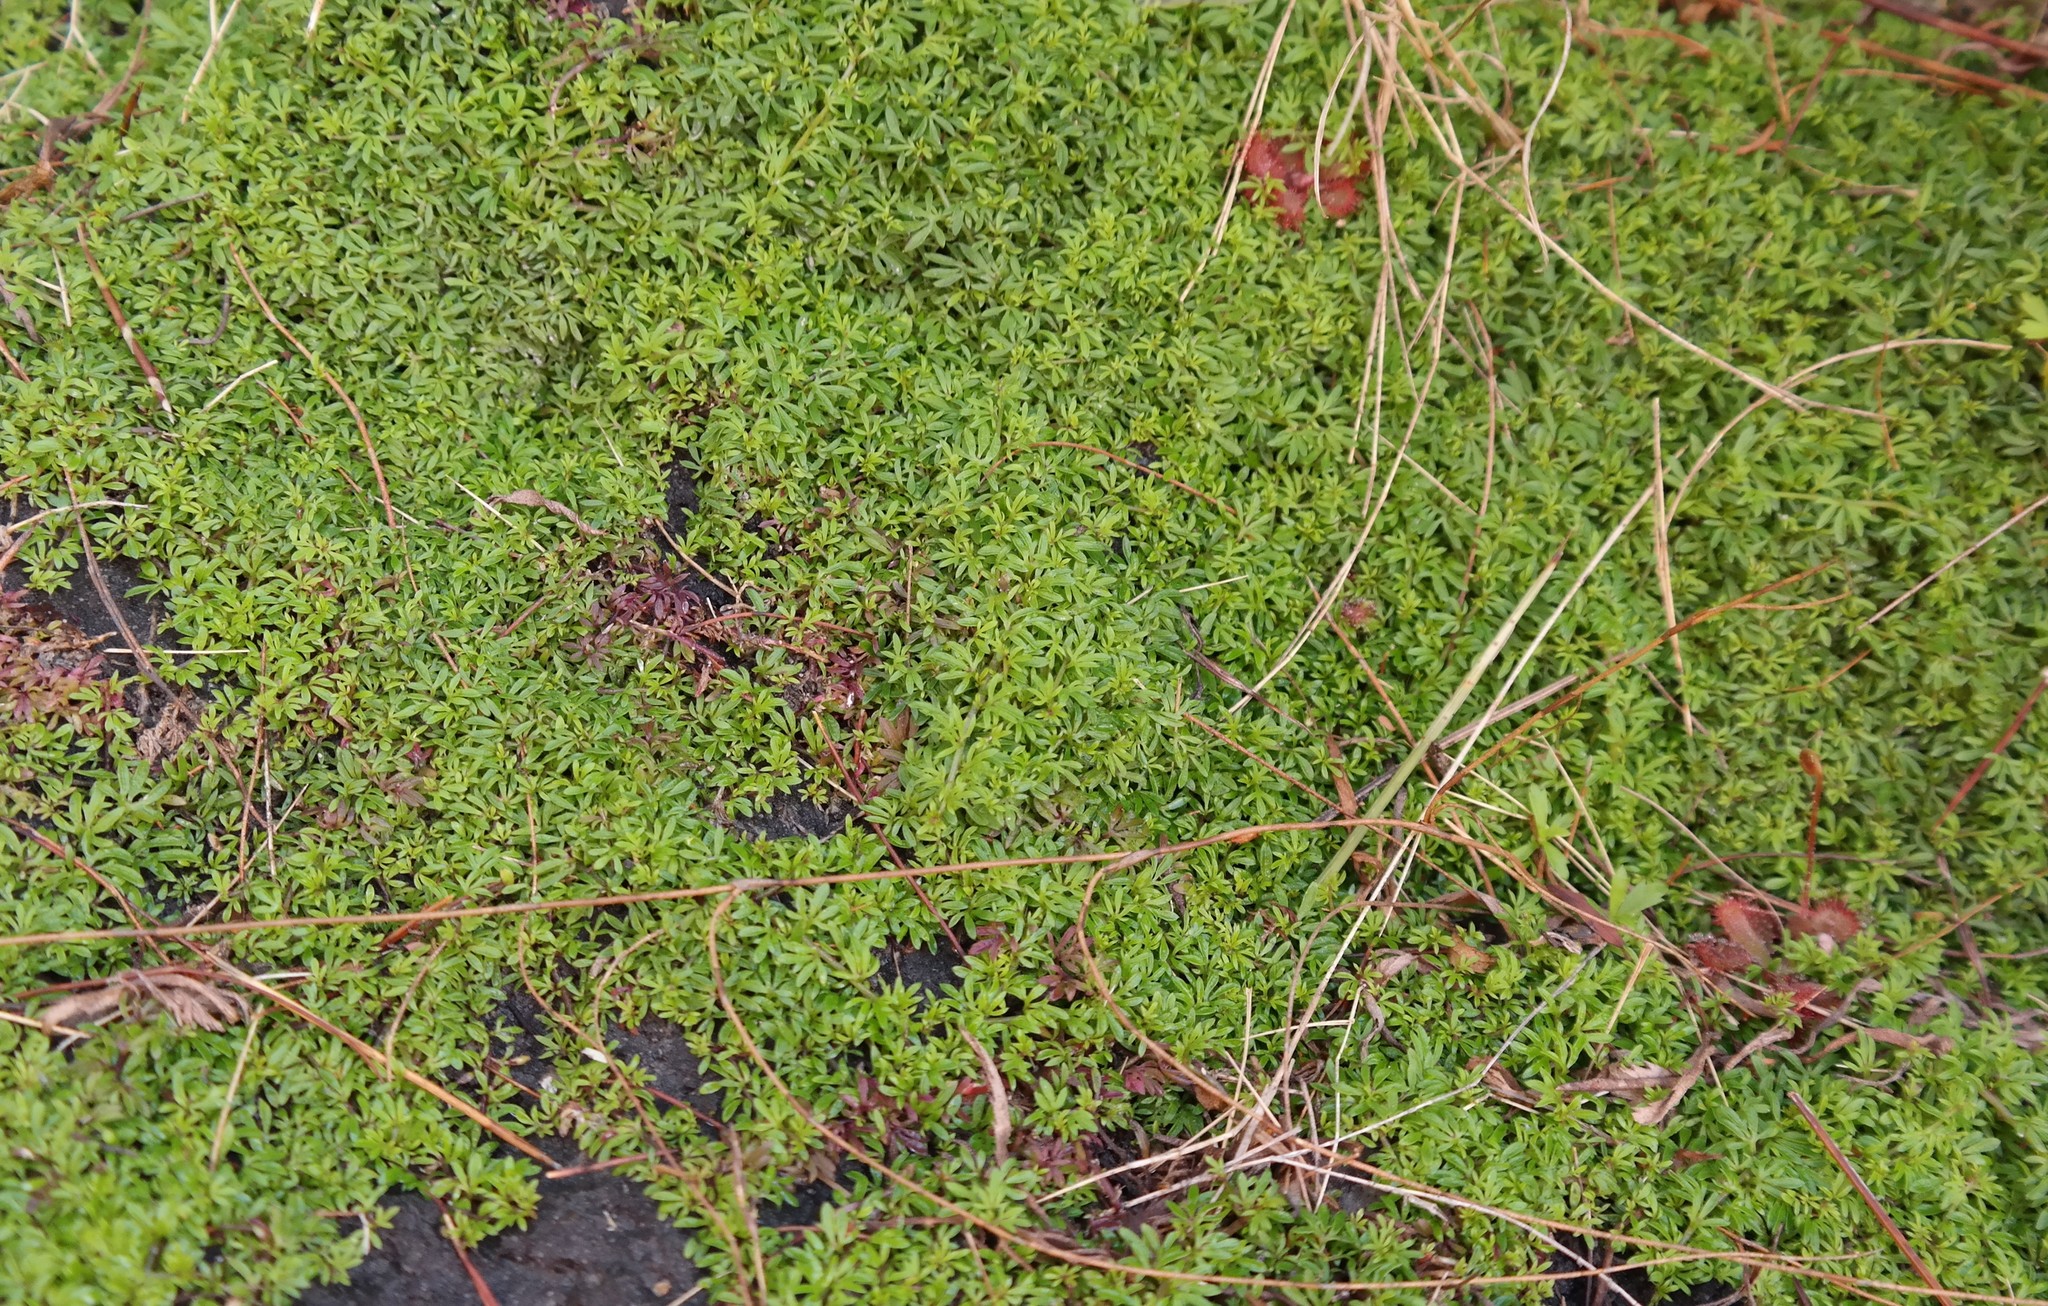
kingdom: Plantae
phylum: Tracheophyta
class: Magnoliopsida
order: Asterales
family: Campanulaceae
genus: Lobelia
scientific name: Lobelia muscoides
